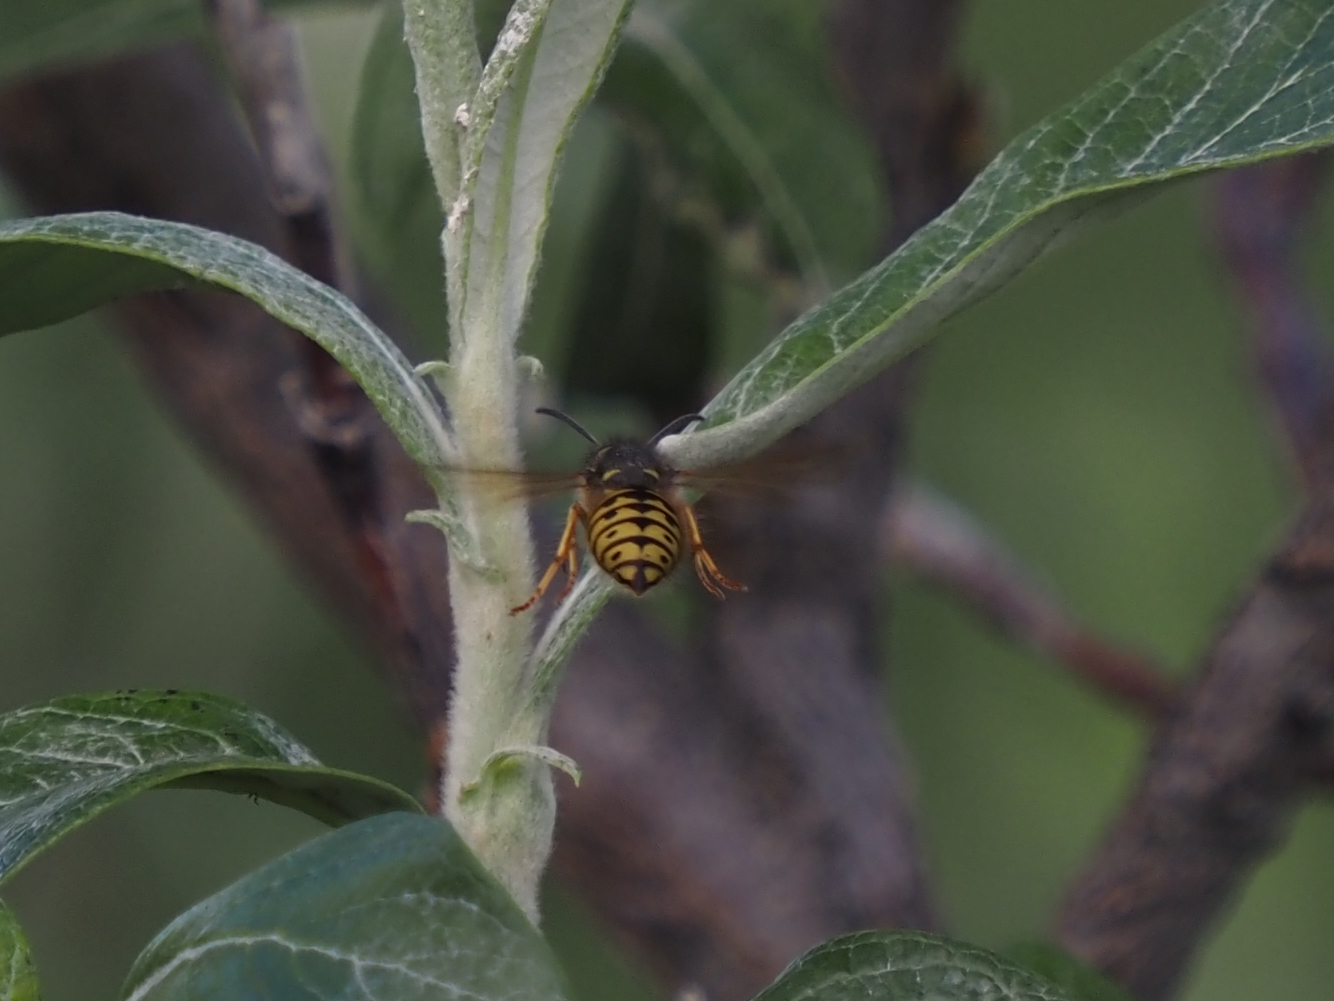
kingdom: Animalia
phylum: Arthropoda
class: Insecta
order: Hymenoptera
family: Vespidae
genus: Dolichovespula
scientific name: Dolichovespula arenaria
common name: Aerial yellowjacket
